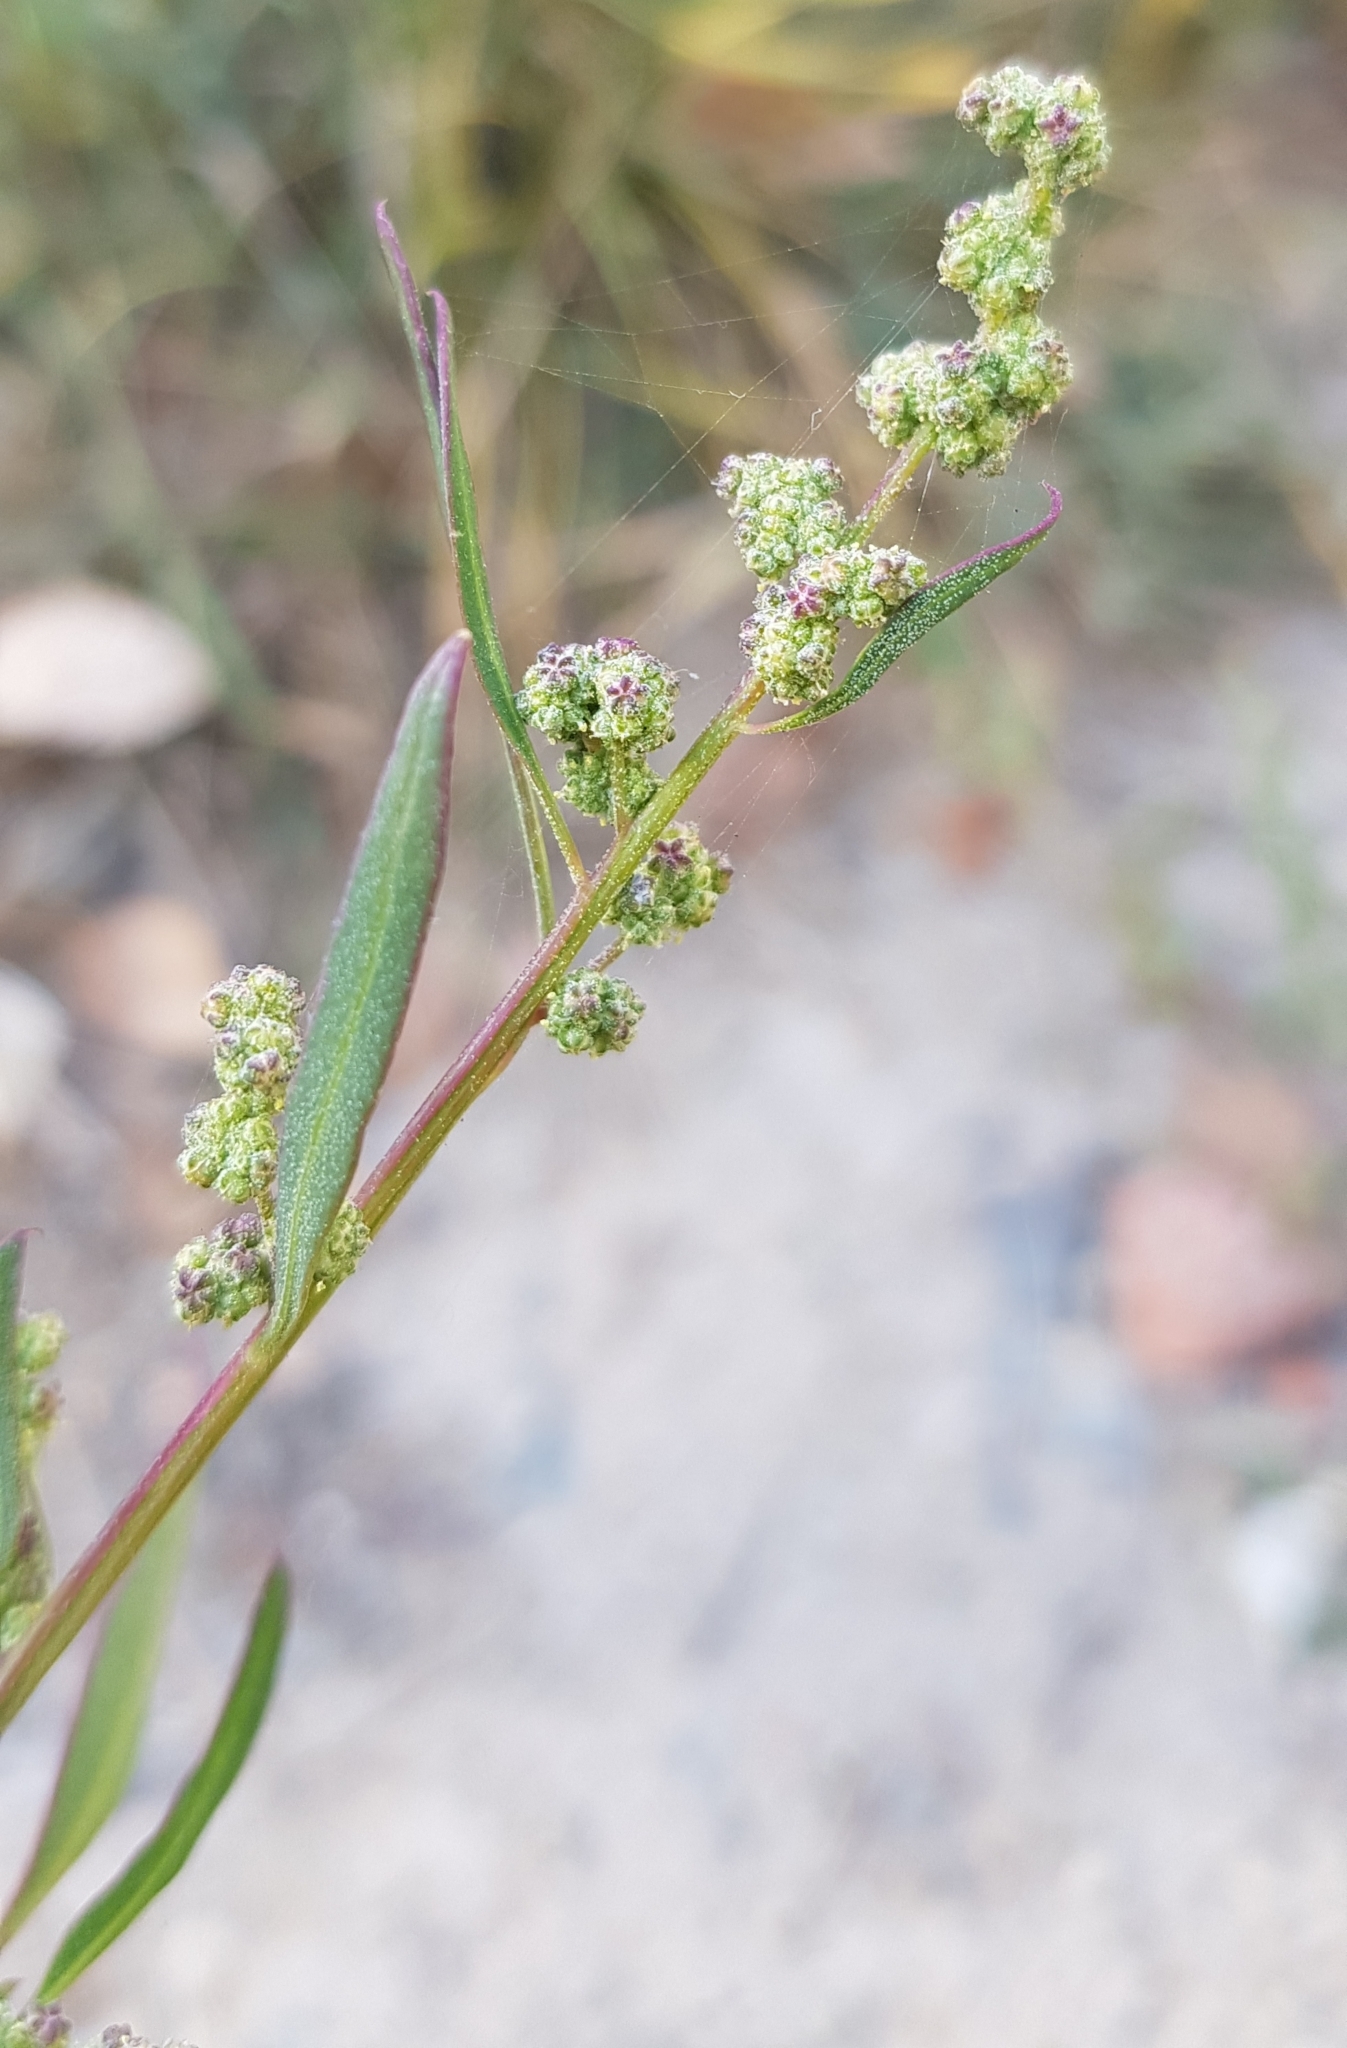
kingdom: Plantae
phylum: Tracheophyta
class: Magnoliopsida
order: Caryophyllales
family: Amaranthaceae
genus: Chenopodium
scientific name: Chenopodium betaceum
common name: Striped goosefoot
